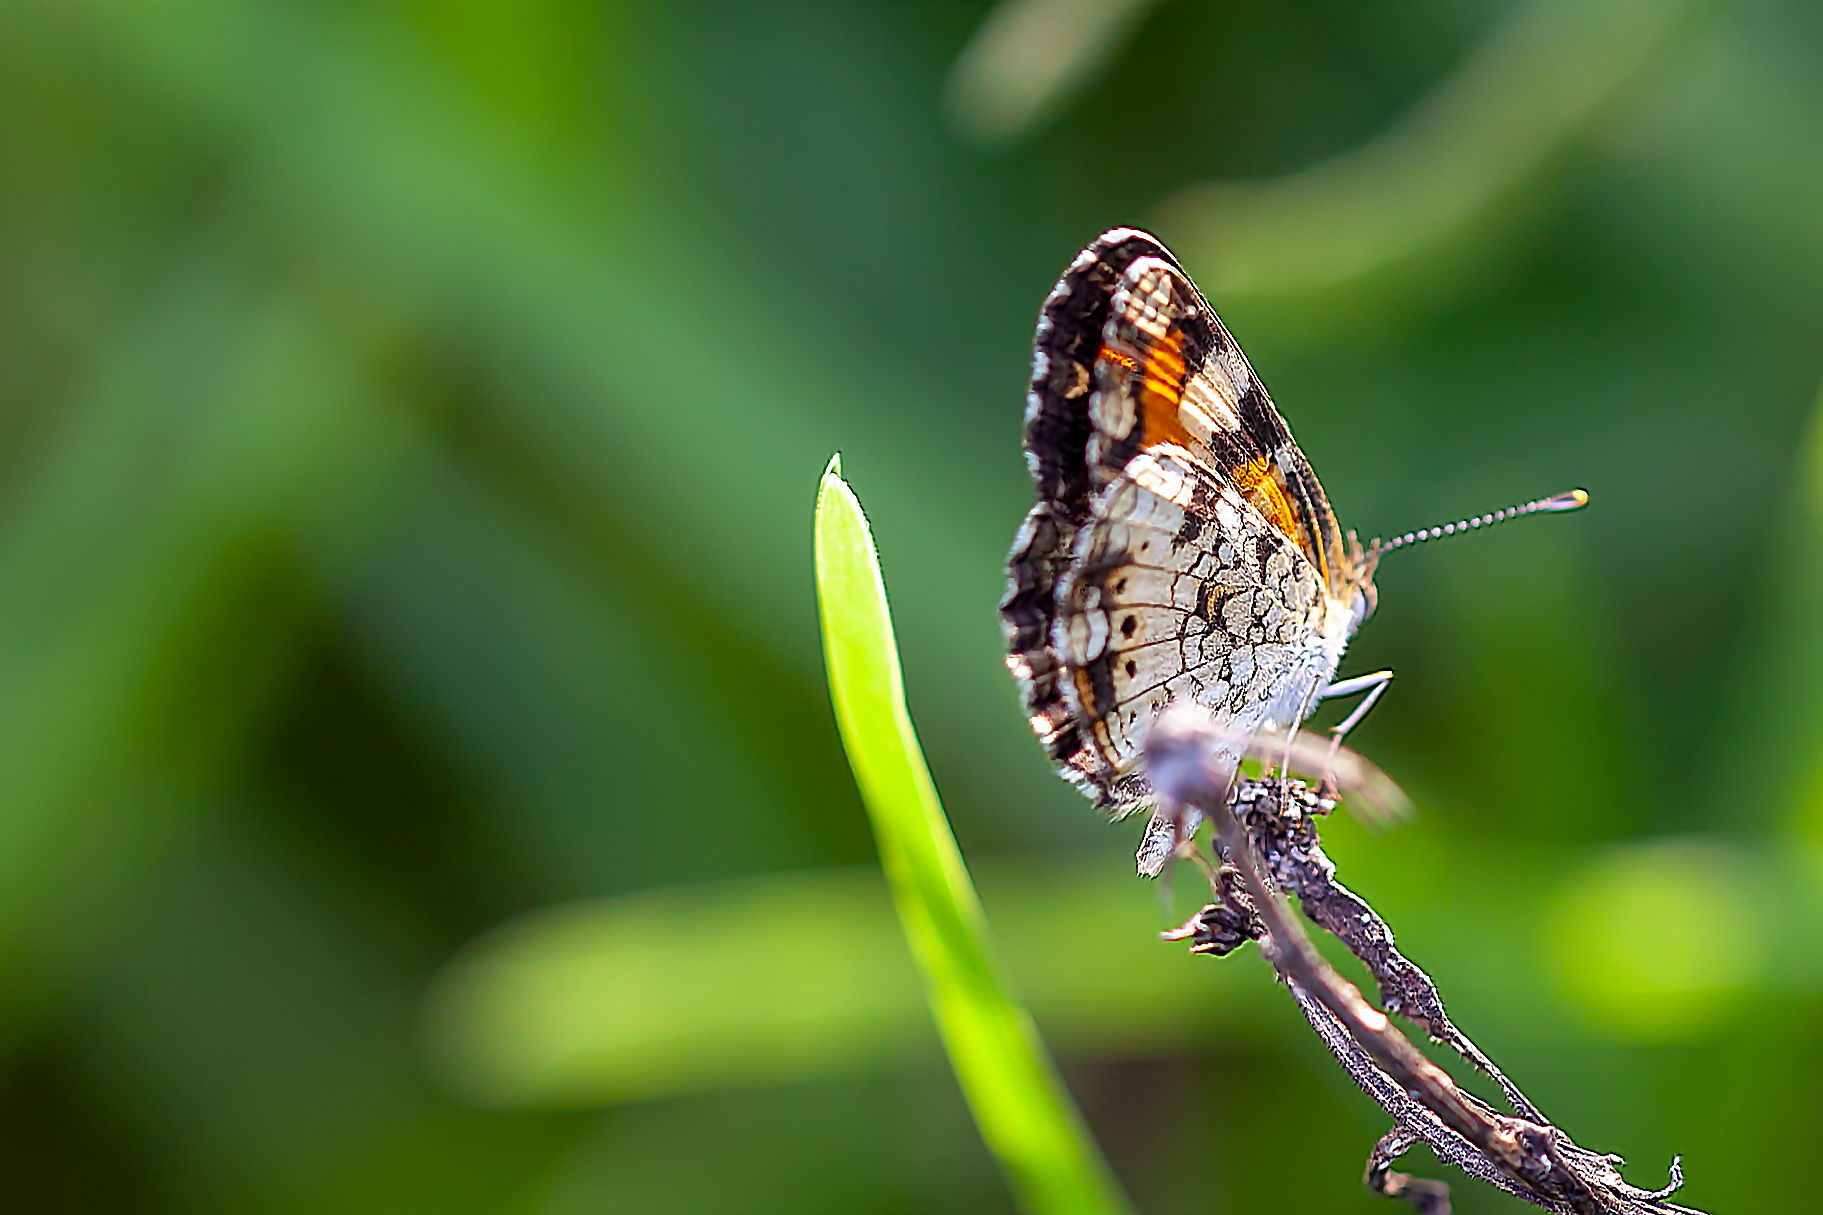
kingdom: Animalia
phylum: Arthropoda
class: Insecta
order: Lepidoptera
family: Nymphalidae
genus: Phyciodes
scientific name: Phyciodes phaon
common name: Phaon crescent
